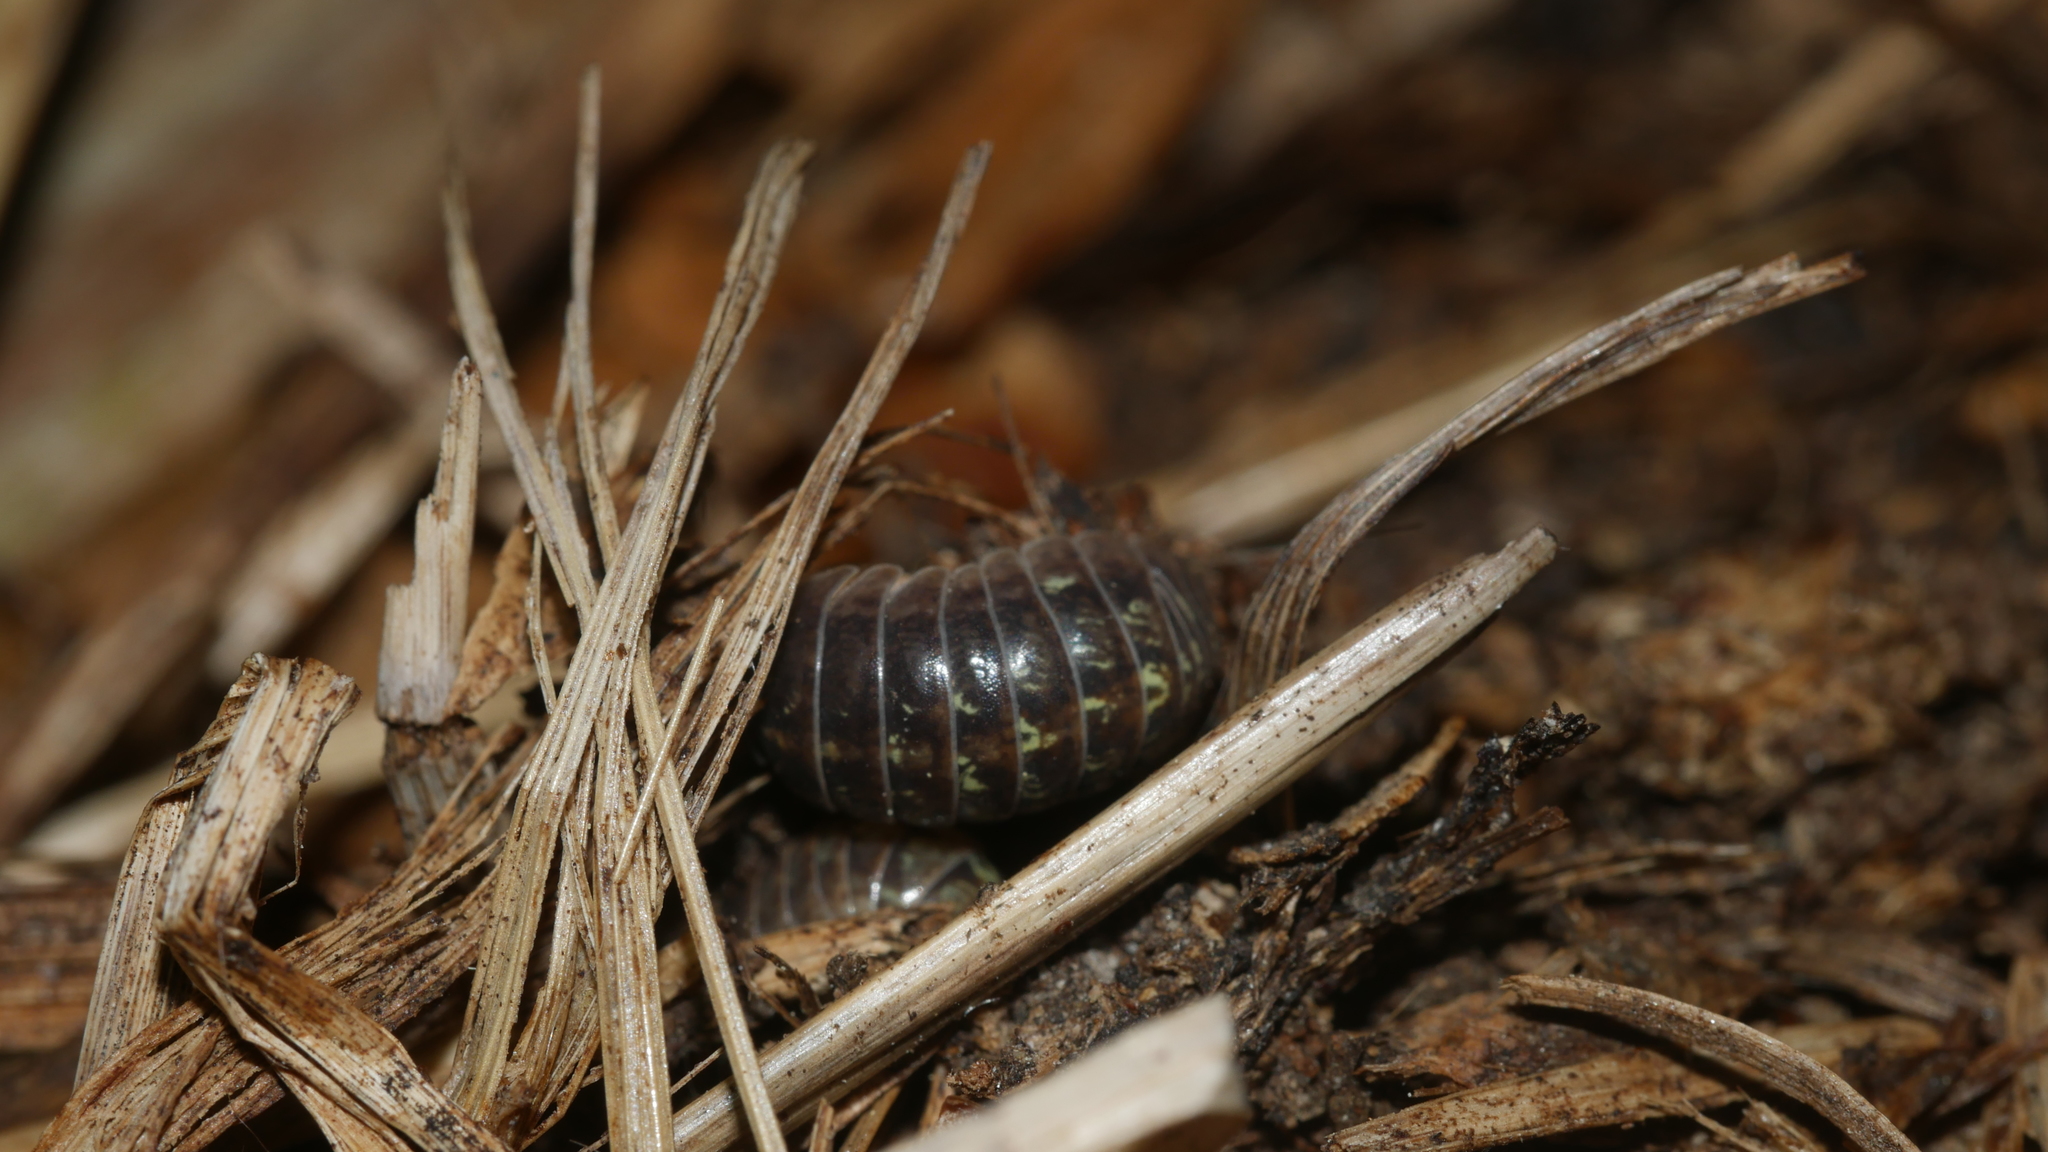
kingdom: Animalia
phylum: Arthropoda
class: Malacostraca
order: Isopoda
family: Armadillidiidae
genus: Armadillidium
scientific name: Armadillidium vulgare
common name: Common pill woodlouse
